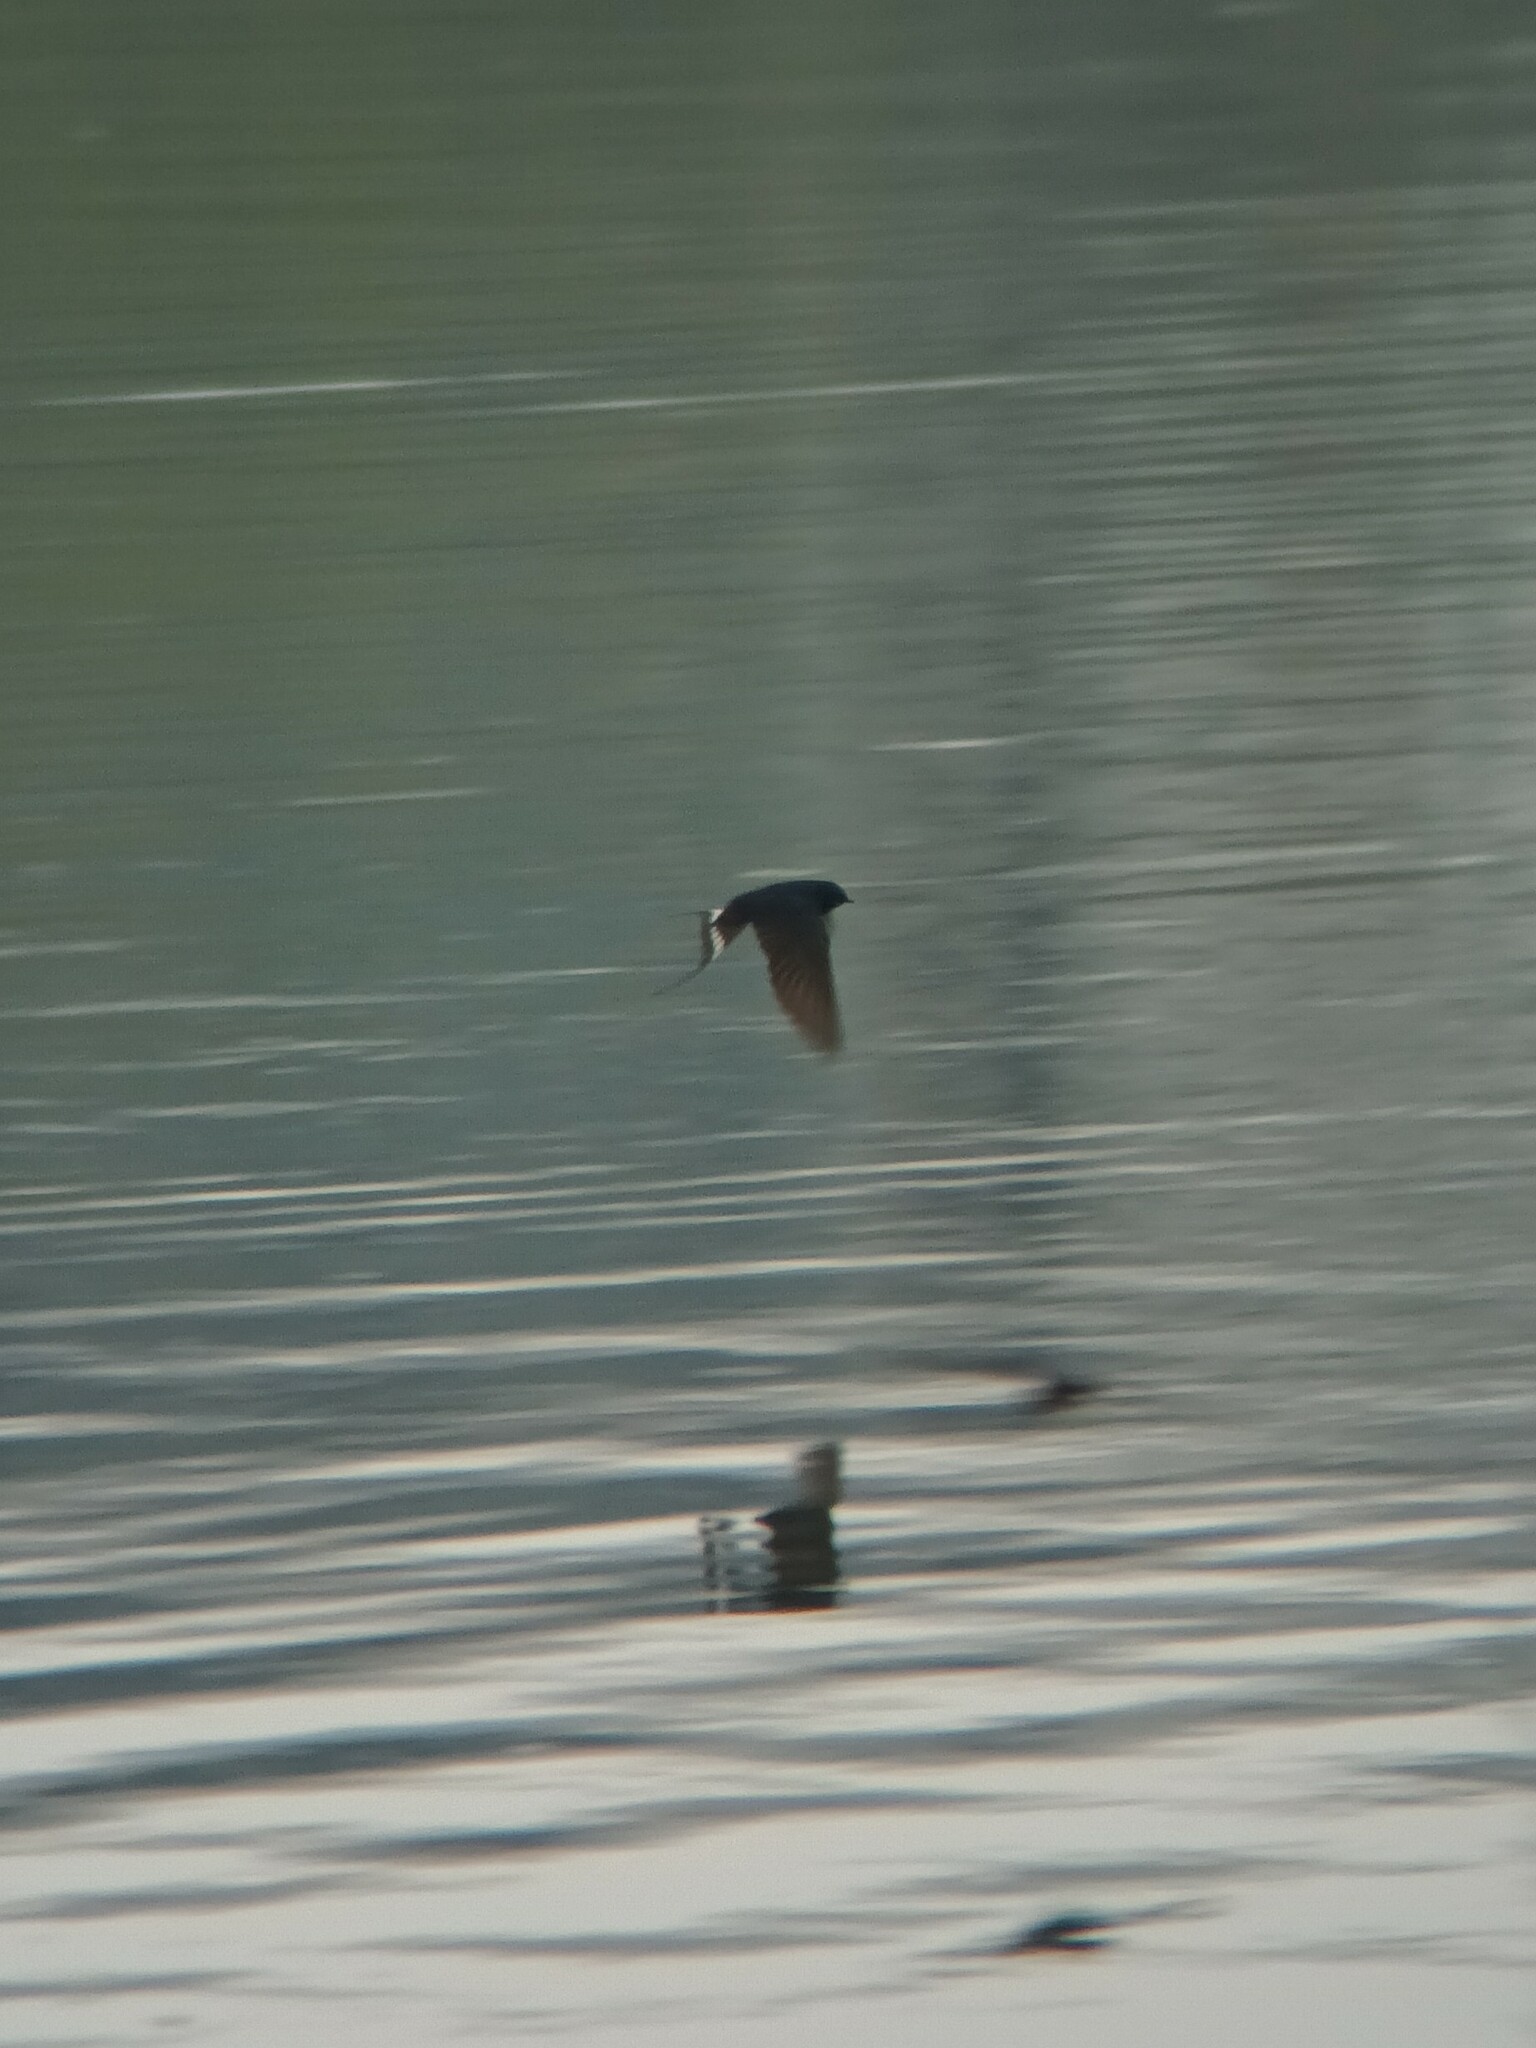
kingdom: Animalia
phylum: Chordata
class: Aves
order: Passeriformes
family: Hirundinidae
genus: Hirundo
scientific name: Hirundo rustica
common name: Barn swallow
